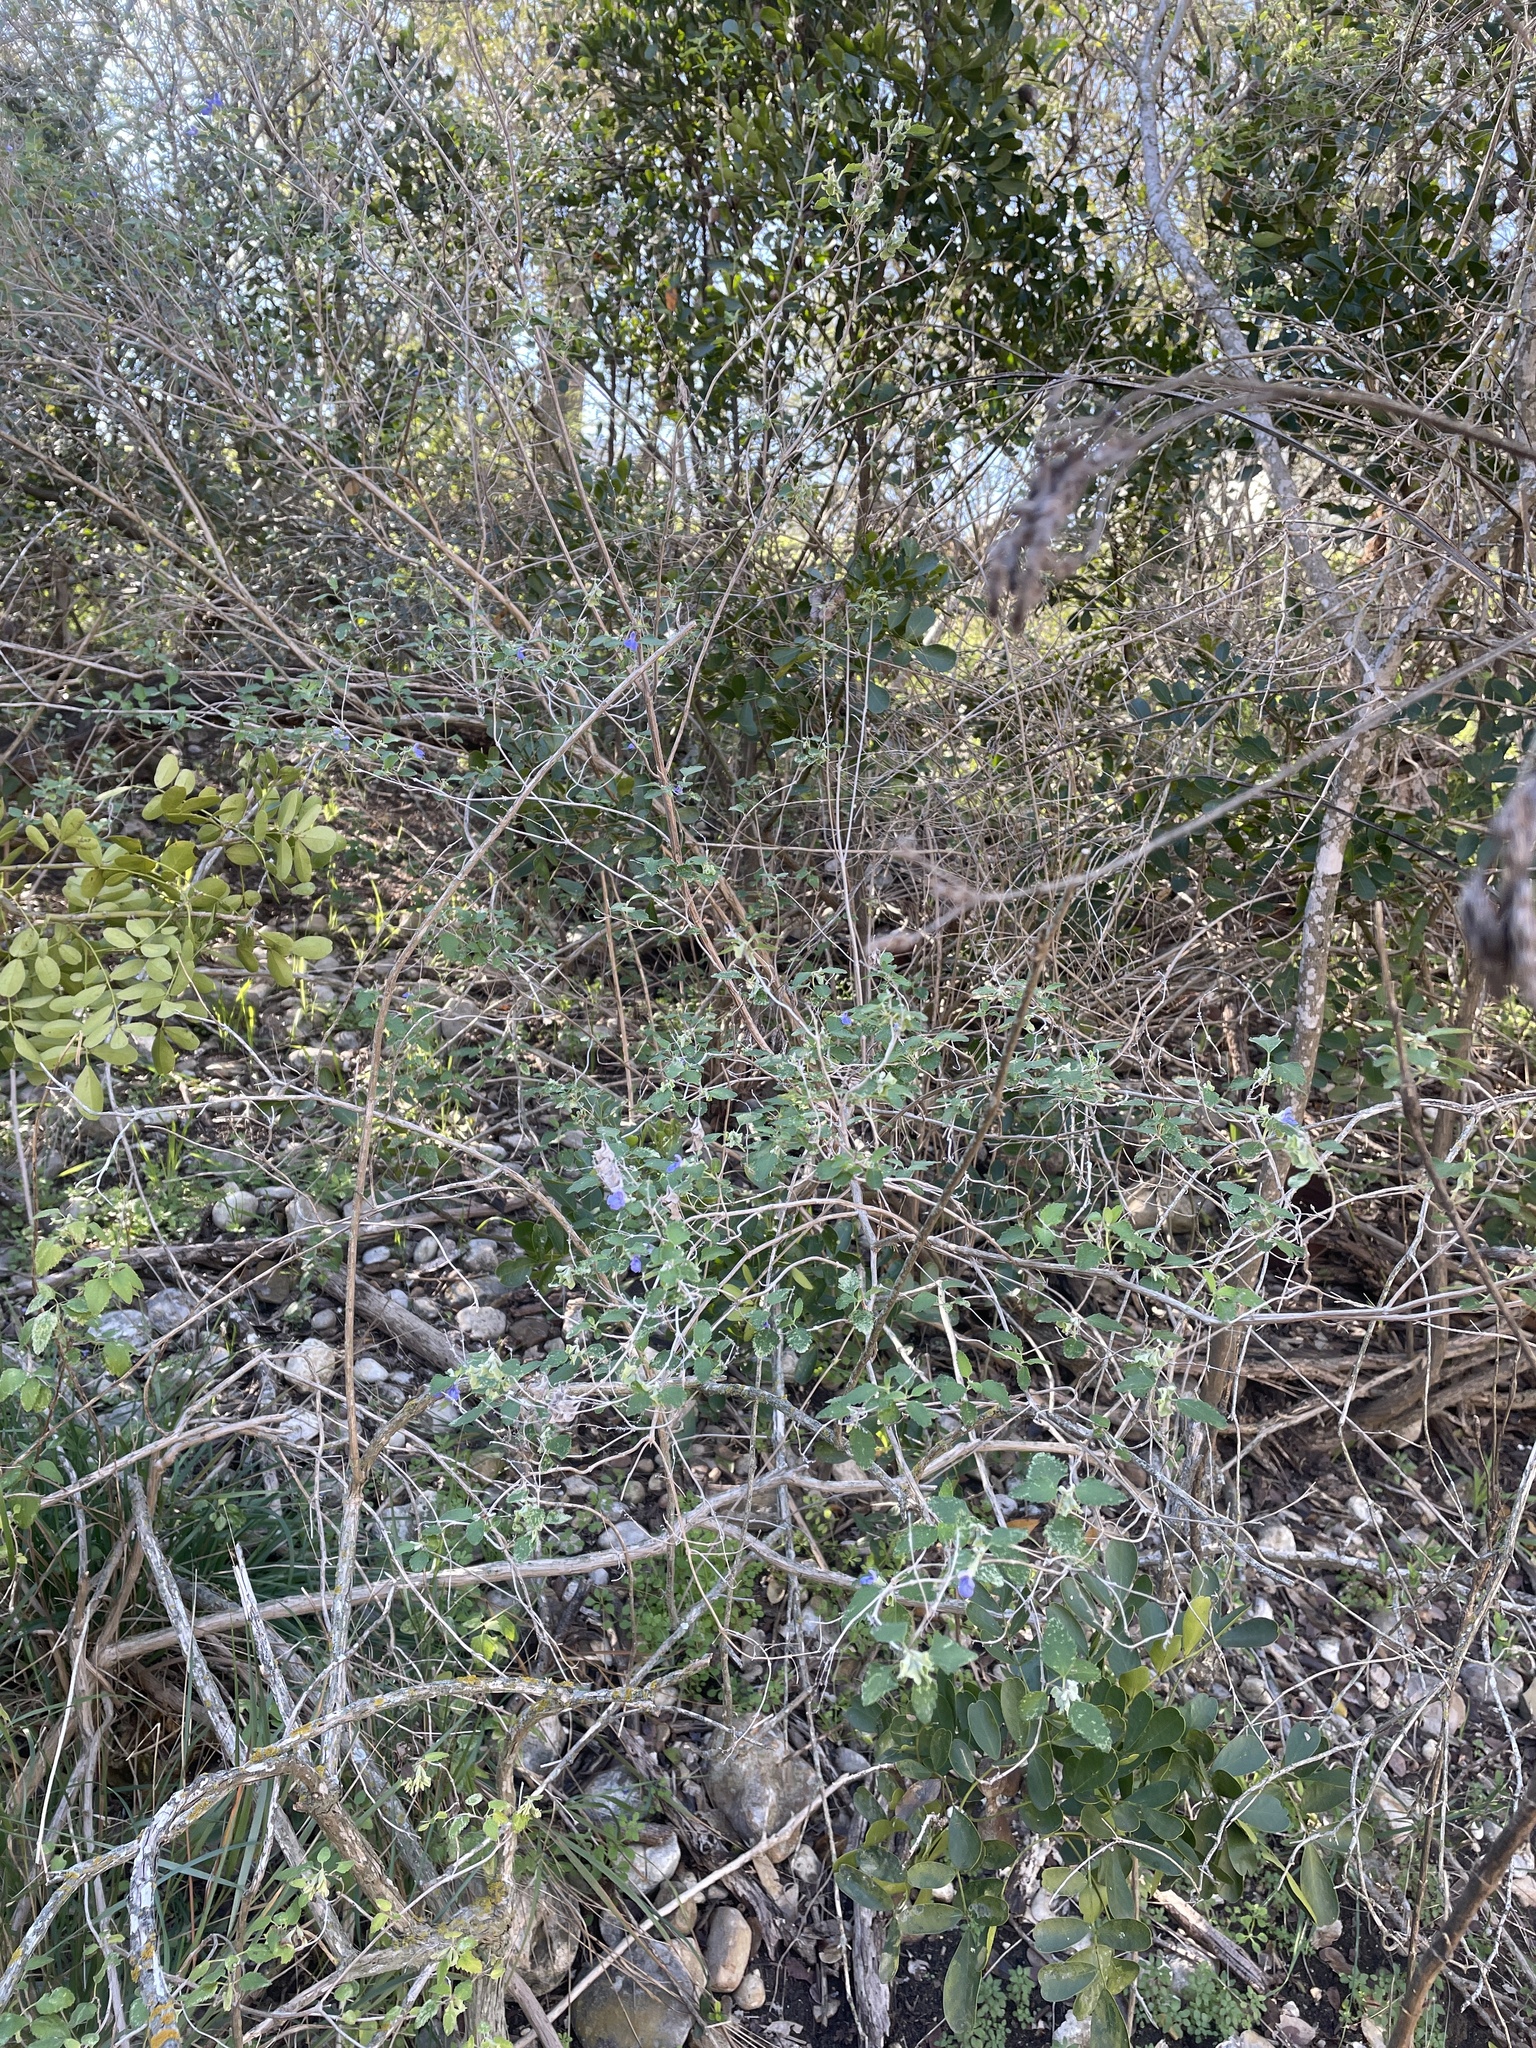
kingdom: Plantae
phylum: Tracheophyta
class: Magnoliopsida
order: Lamiales
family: Lamiaceae
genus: Salvia
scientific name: Salvia ballotiflora
